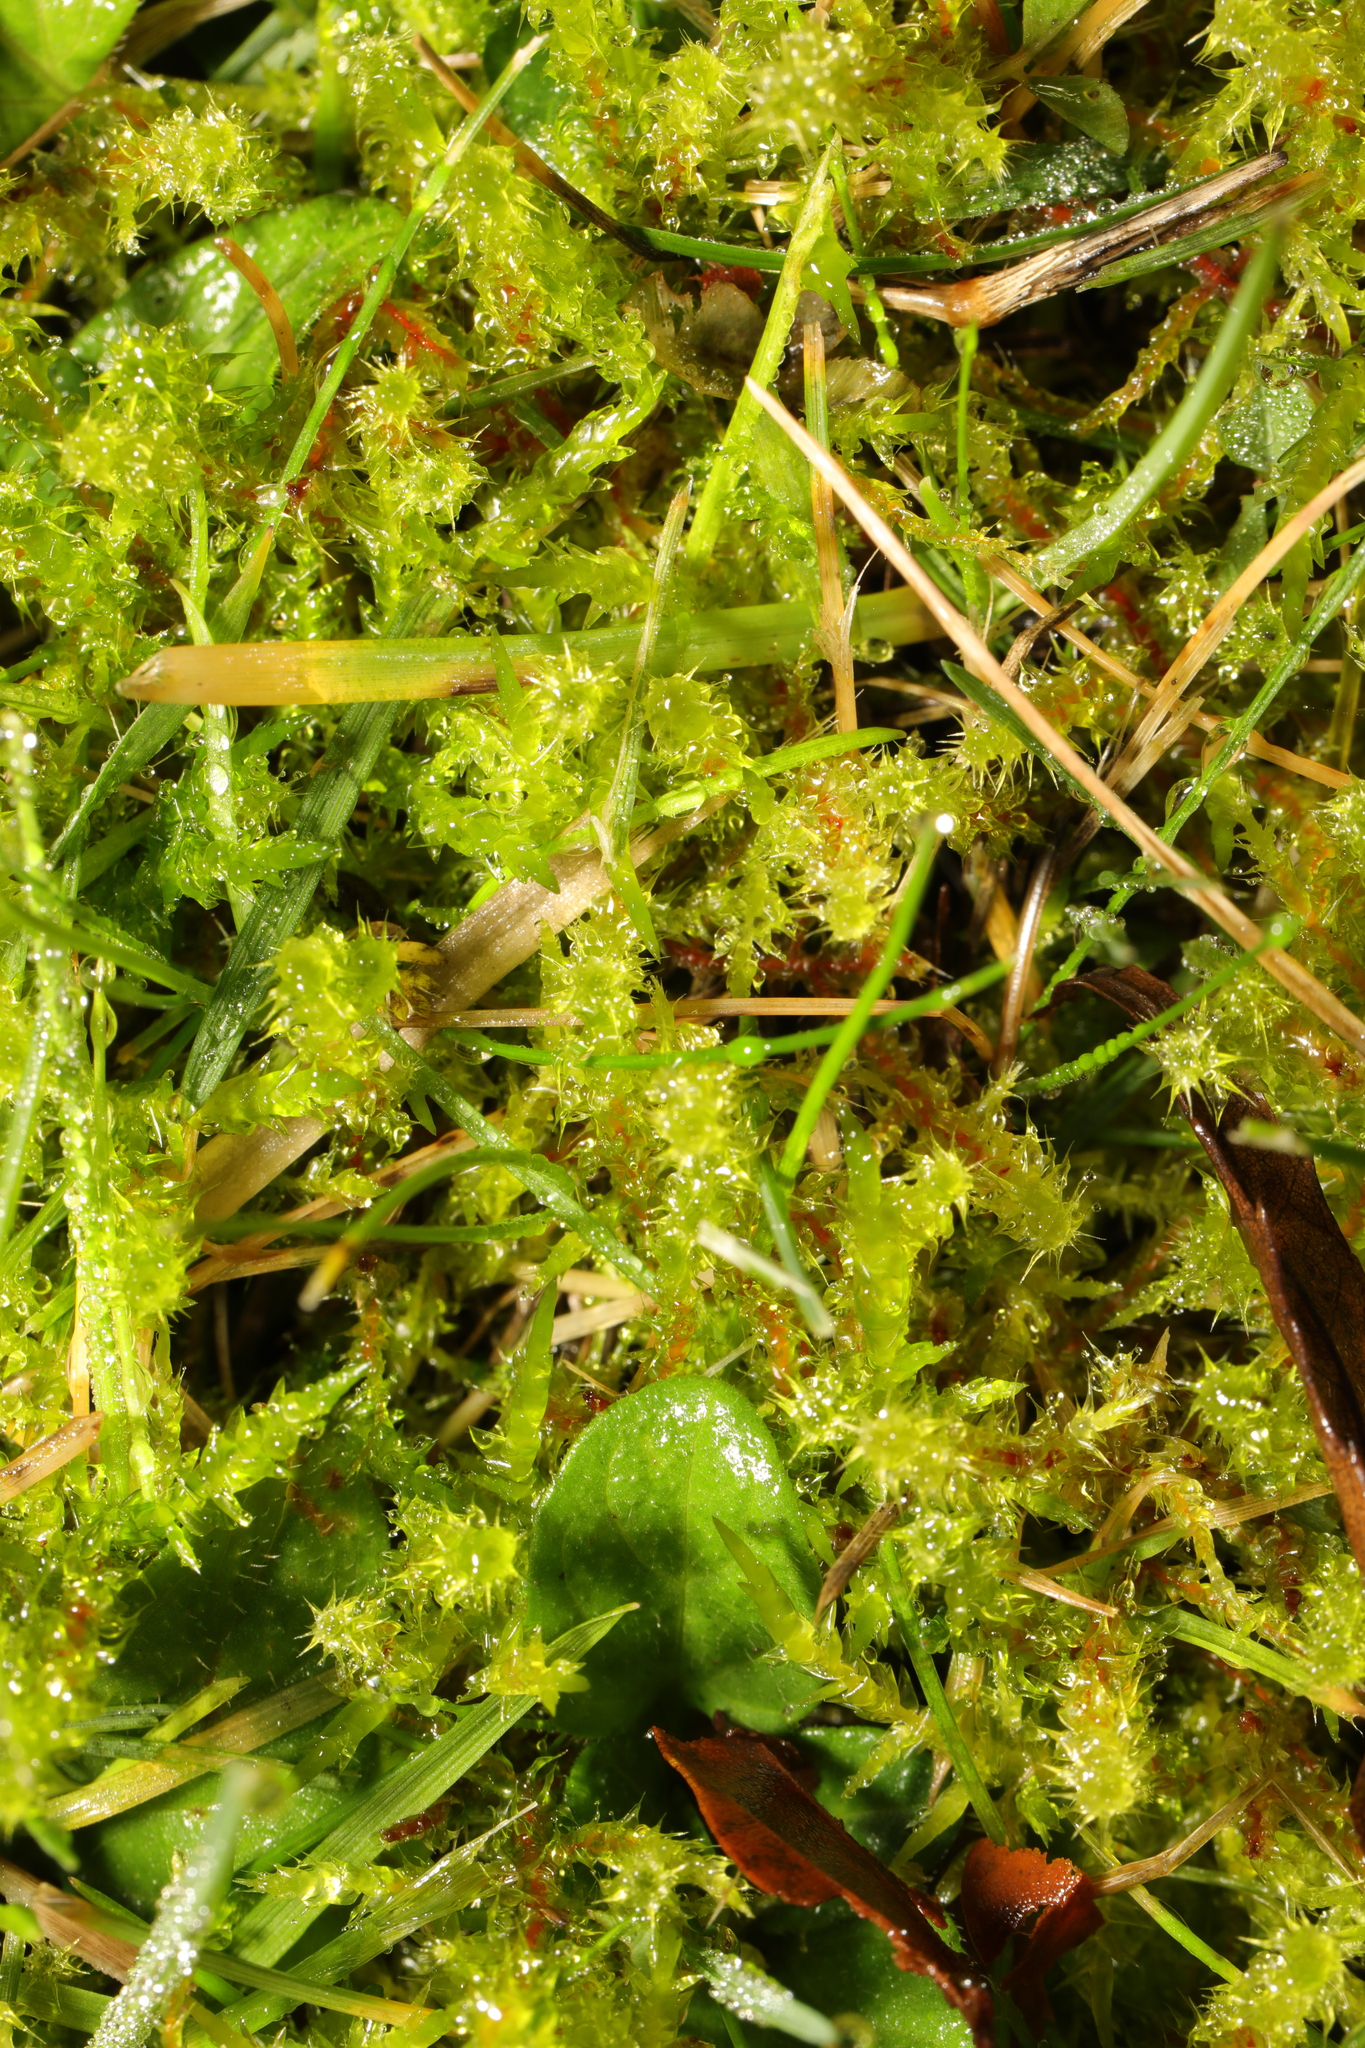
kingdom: Plantae
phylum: Bryophyta
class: Bryopsida
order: Hypnales
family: Hylocomiaceae
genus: Rhytidiadelphus
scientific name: Rhytidiadelphus squarrosus
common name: Springy turf-moss
